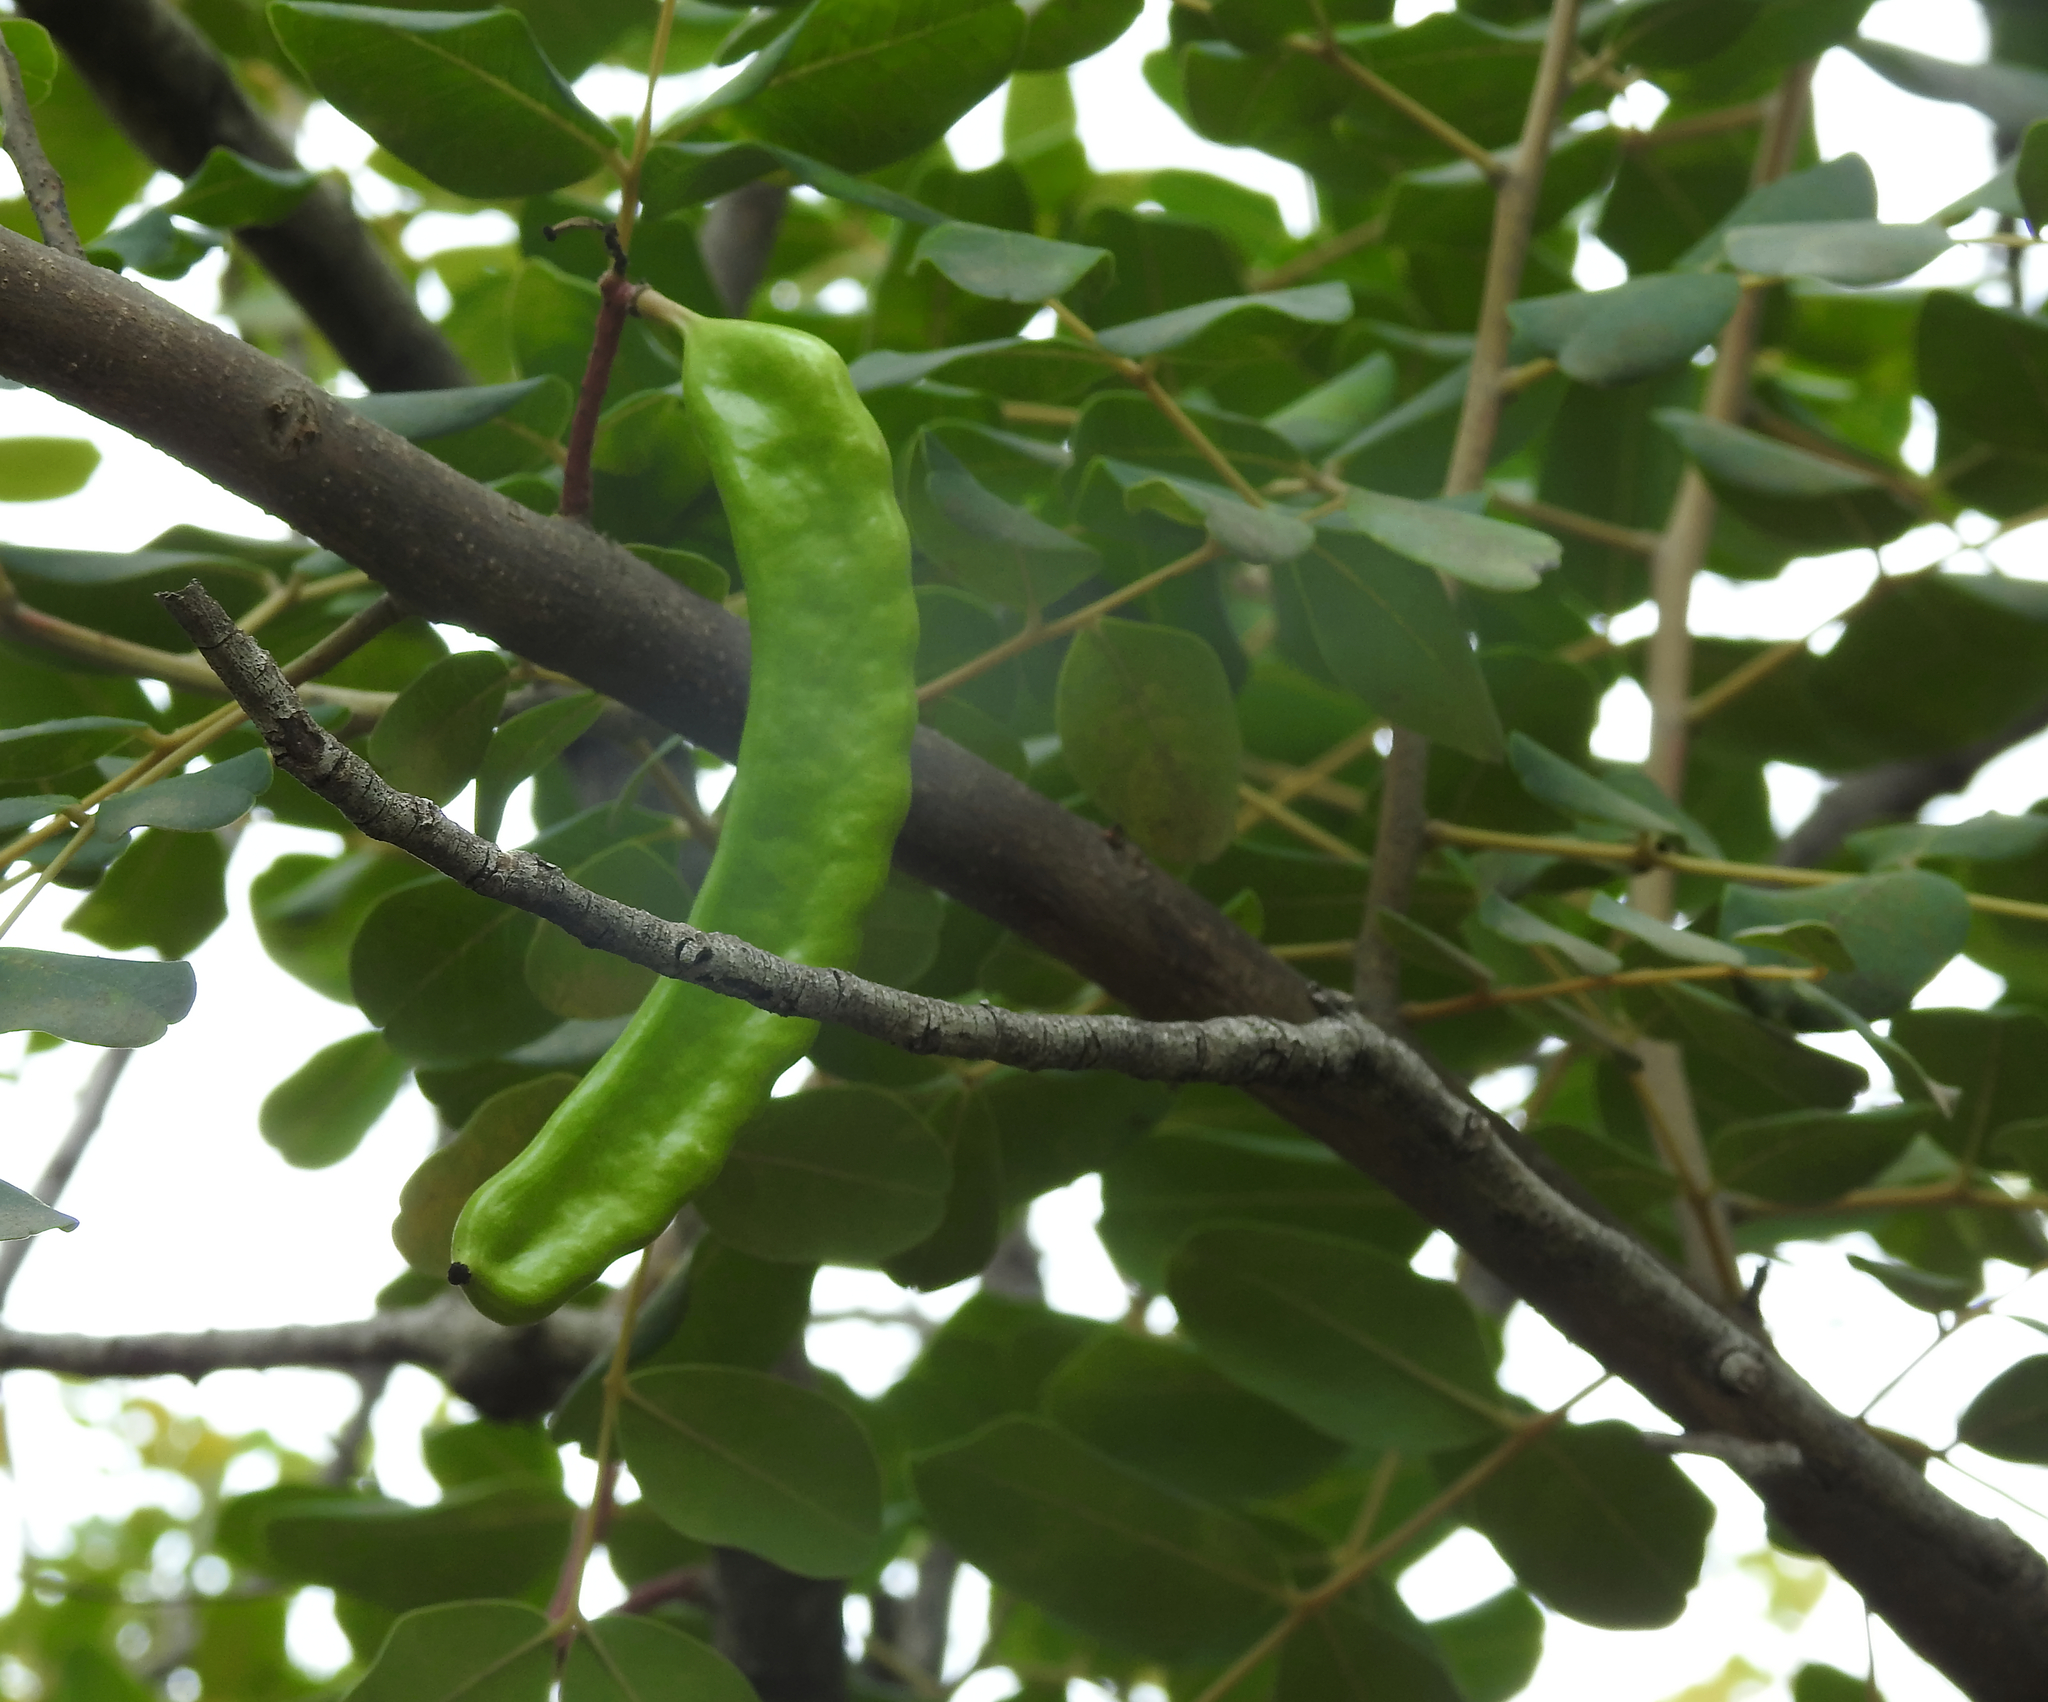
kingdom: Plantae
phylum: Tracheophyta
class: Magnoliopsida
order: Fabales
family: Fabaceae
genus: Ceratonia
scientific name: Ceratonia siliqua
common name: Carob
